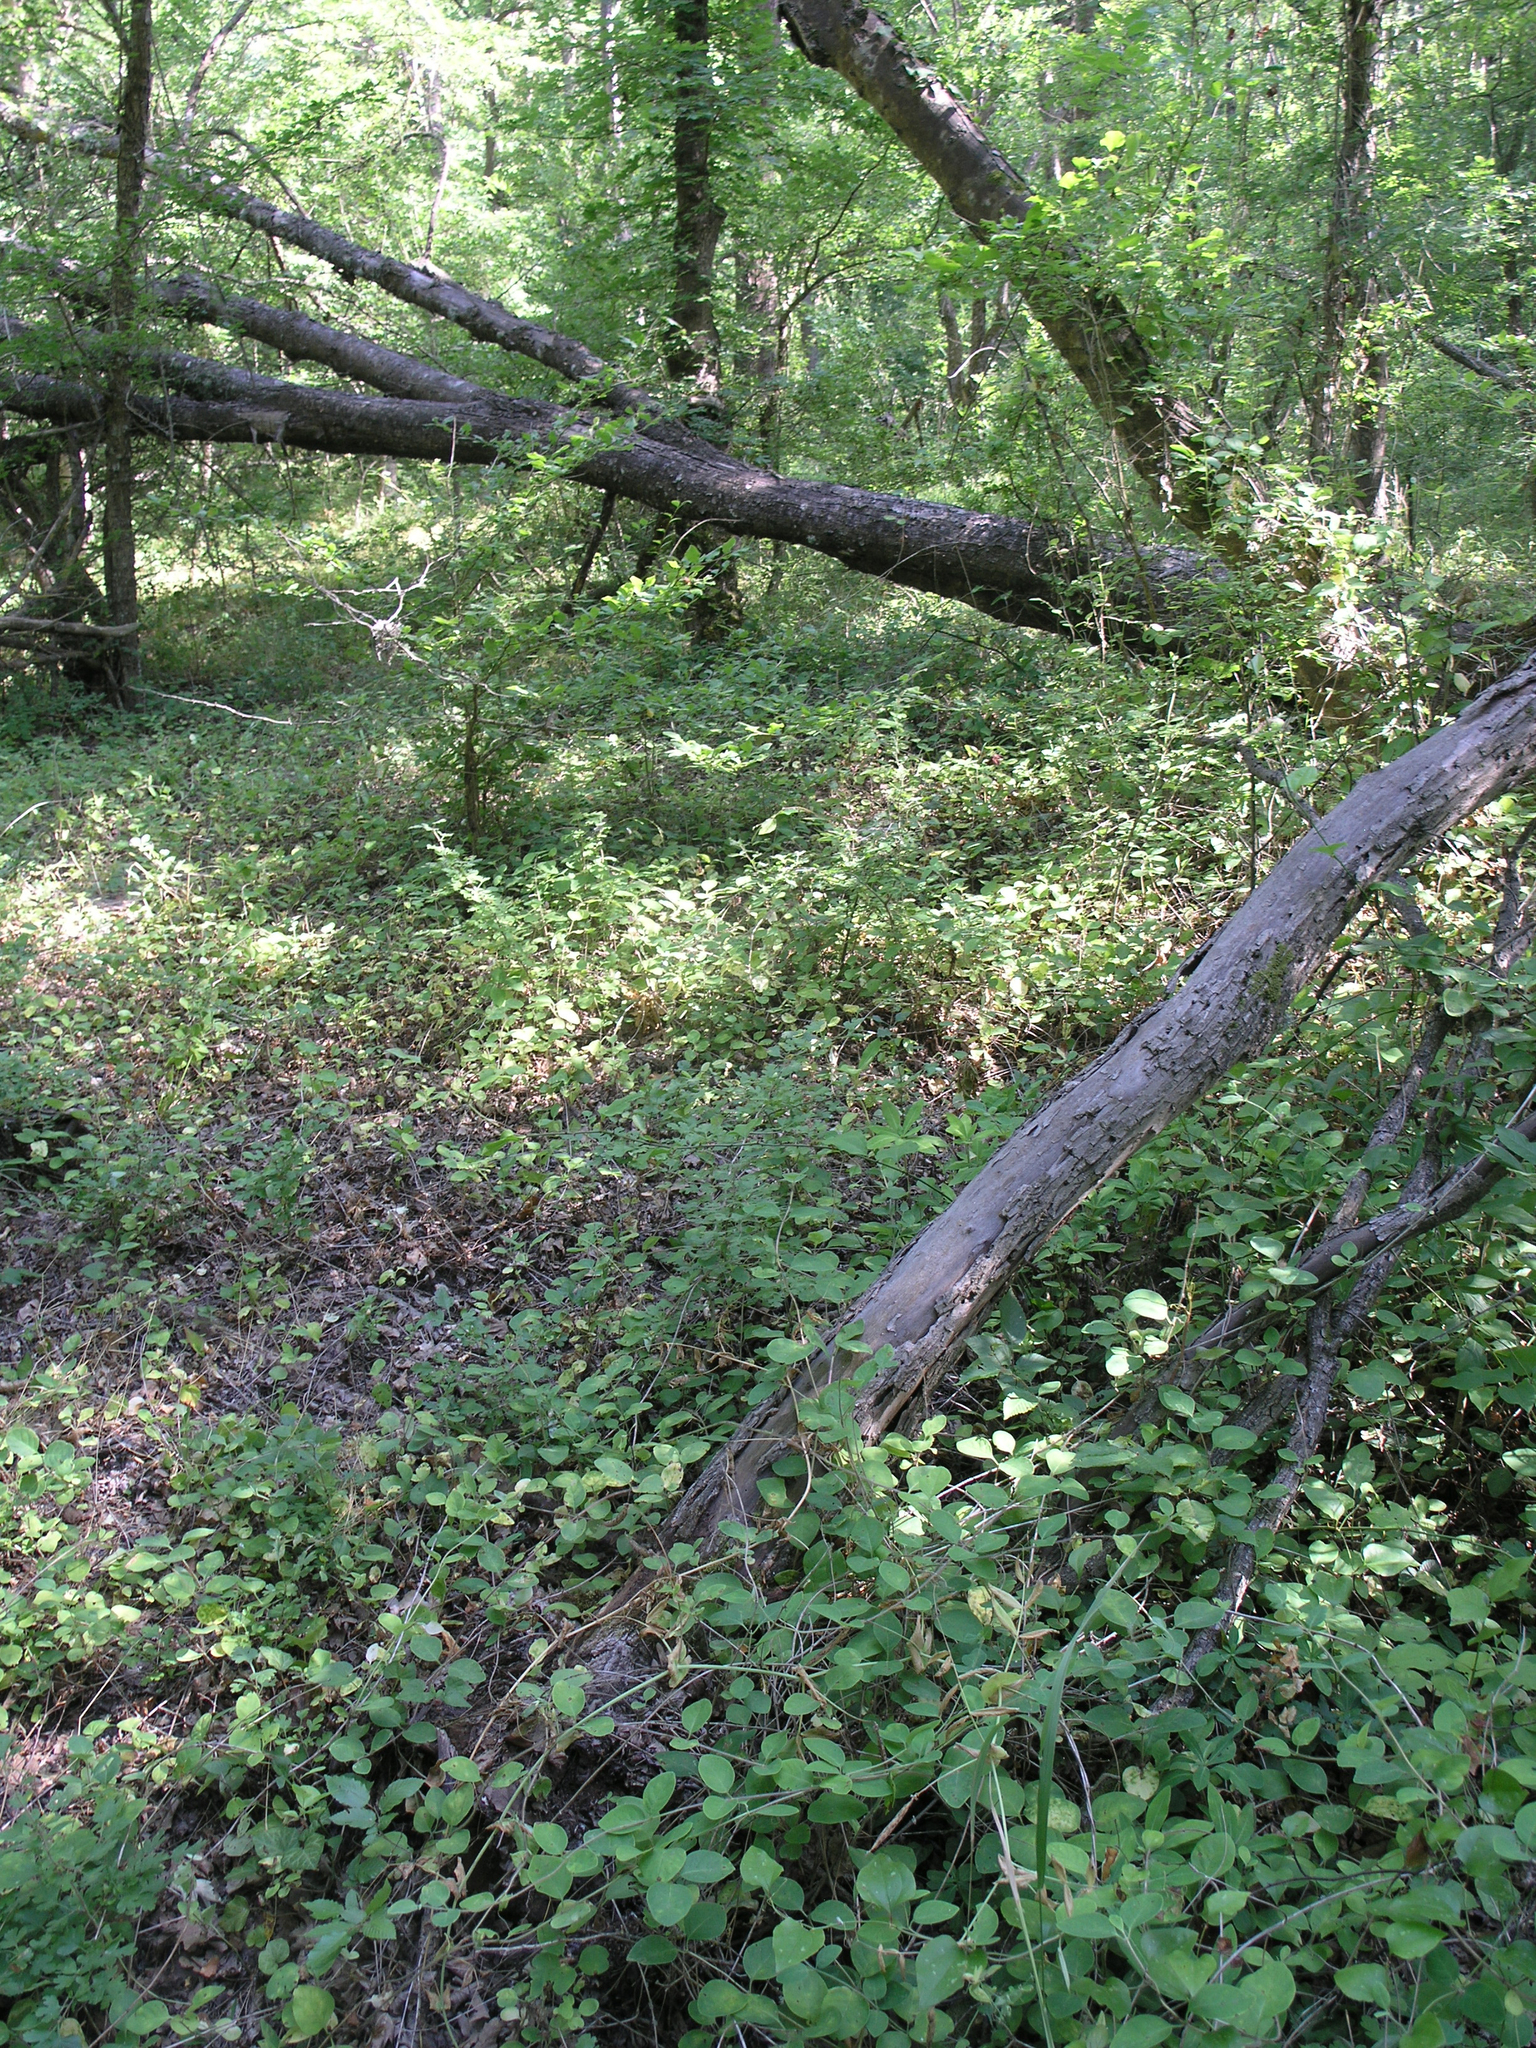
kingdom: Plantae
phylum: Tracheophyta
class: Magnoliopsida
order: Fabales
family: Fabaceae
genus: Lathyrus
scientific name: Lathyrus oleraceus
